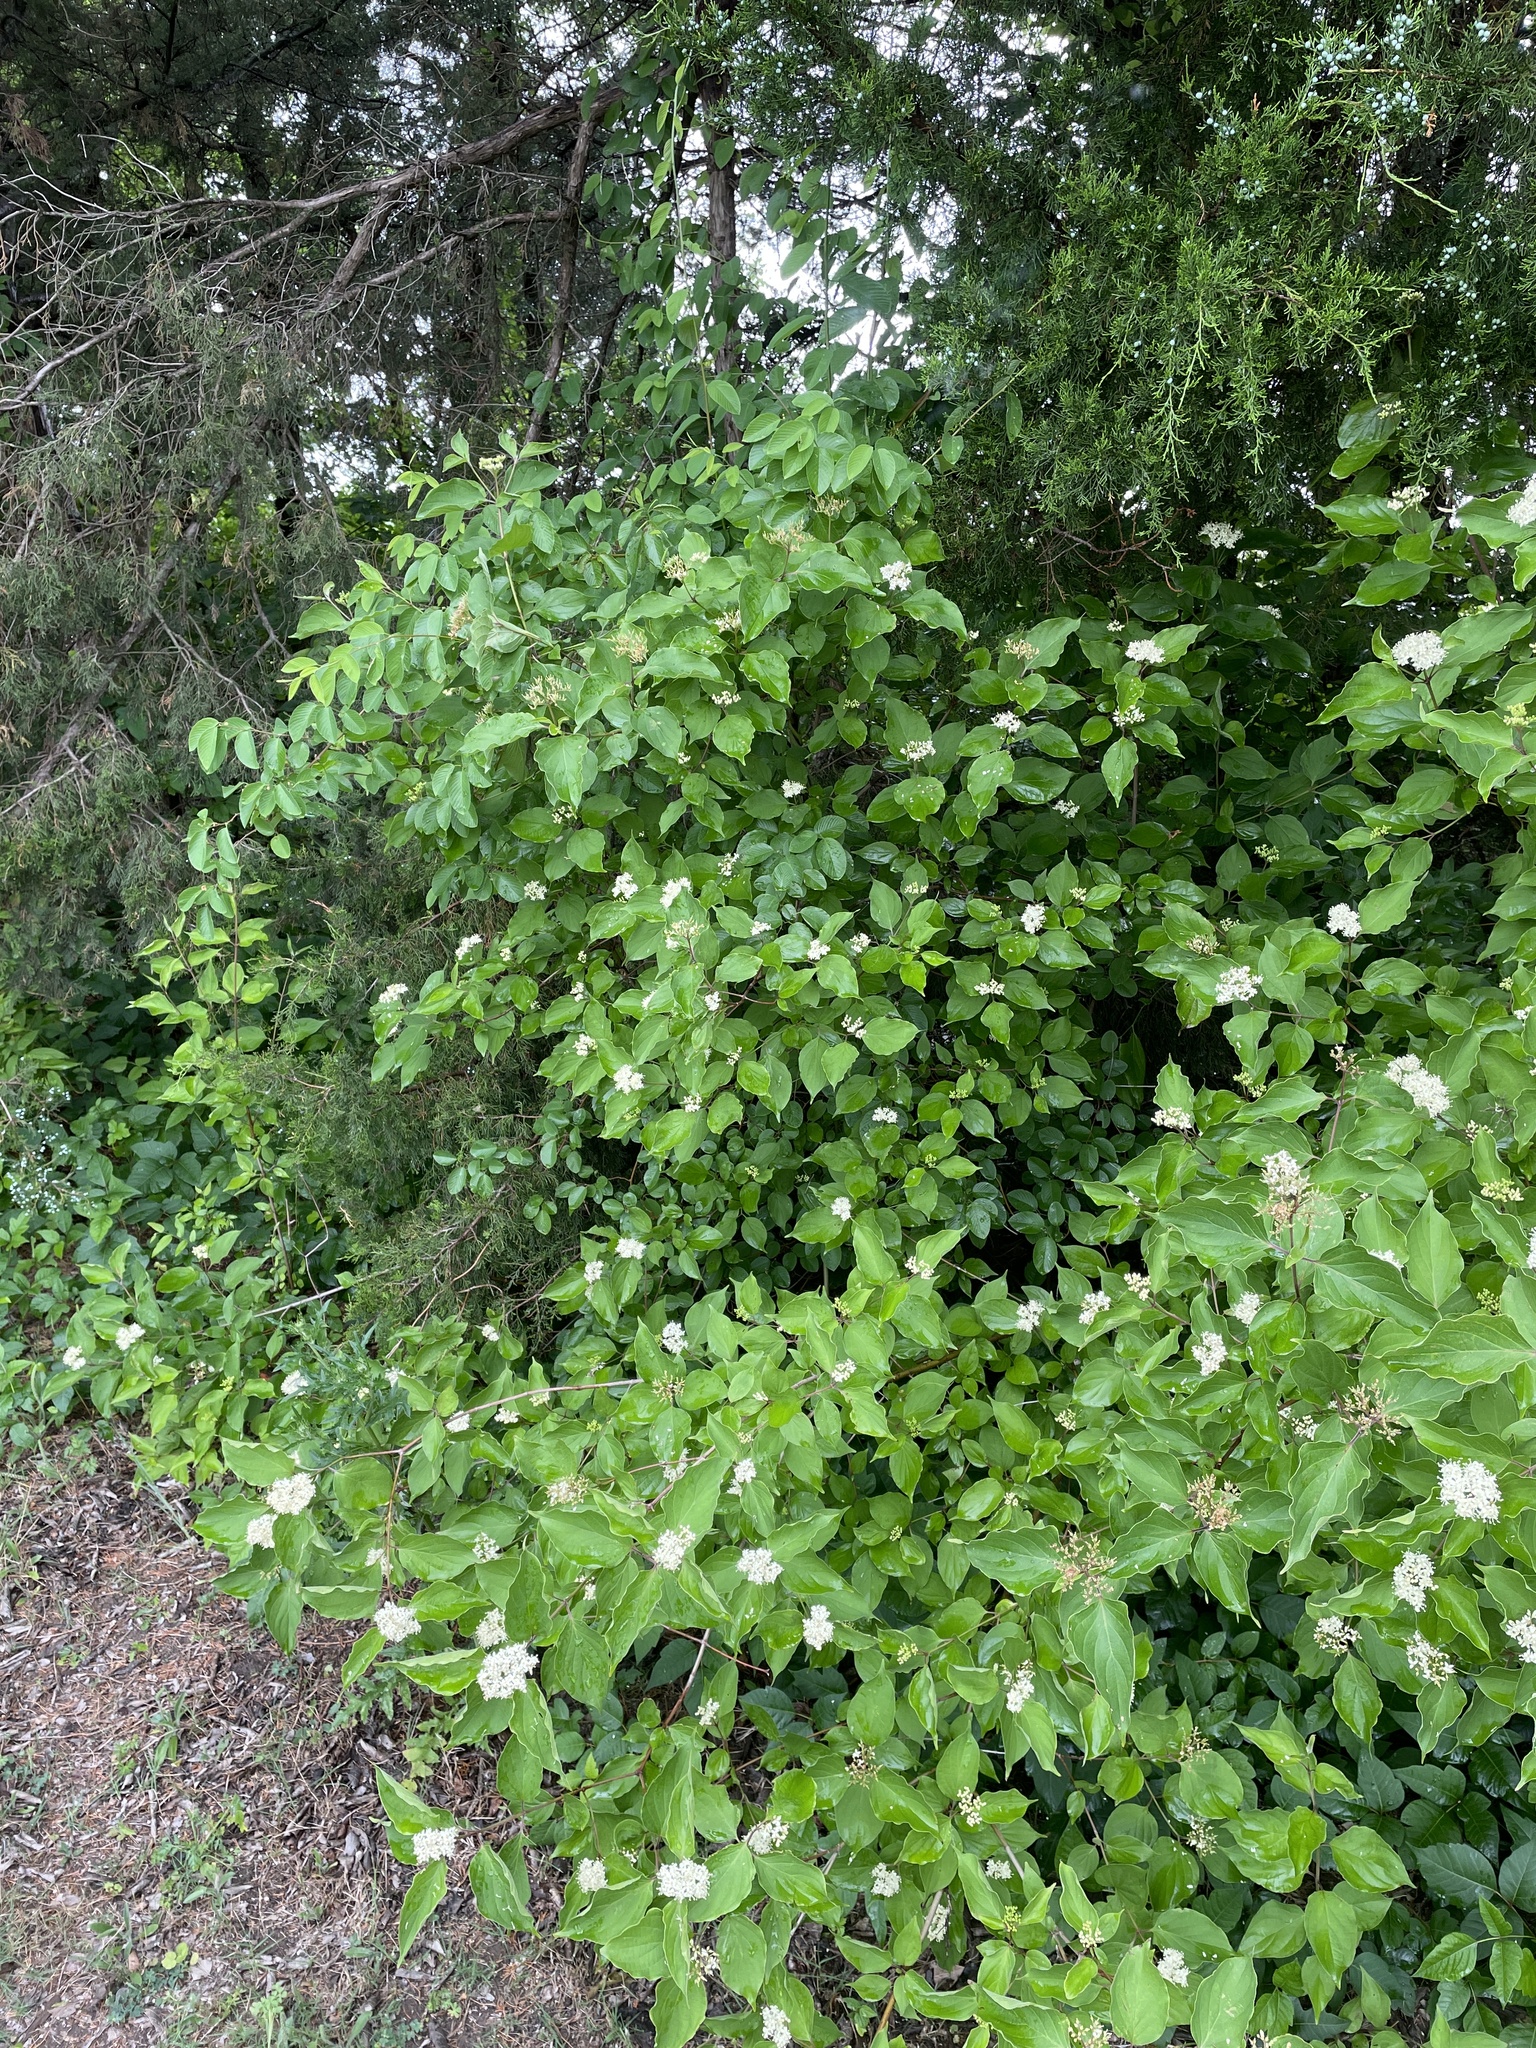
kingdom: Plantae
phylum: Tracheophyta
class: Magnoliopsida
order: Cornales
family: Cornaceae
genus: Cornus
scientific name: Cornus drummondii
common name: Rough-leaf dogwood
